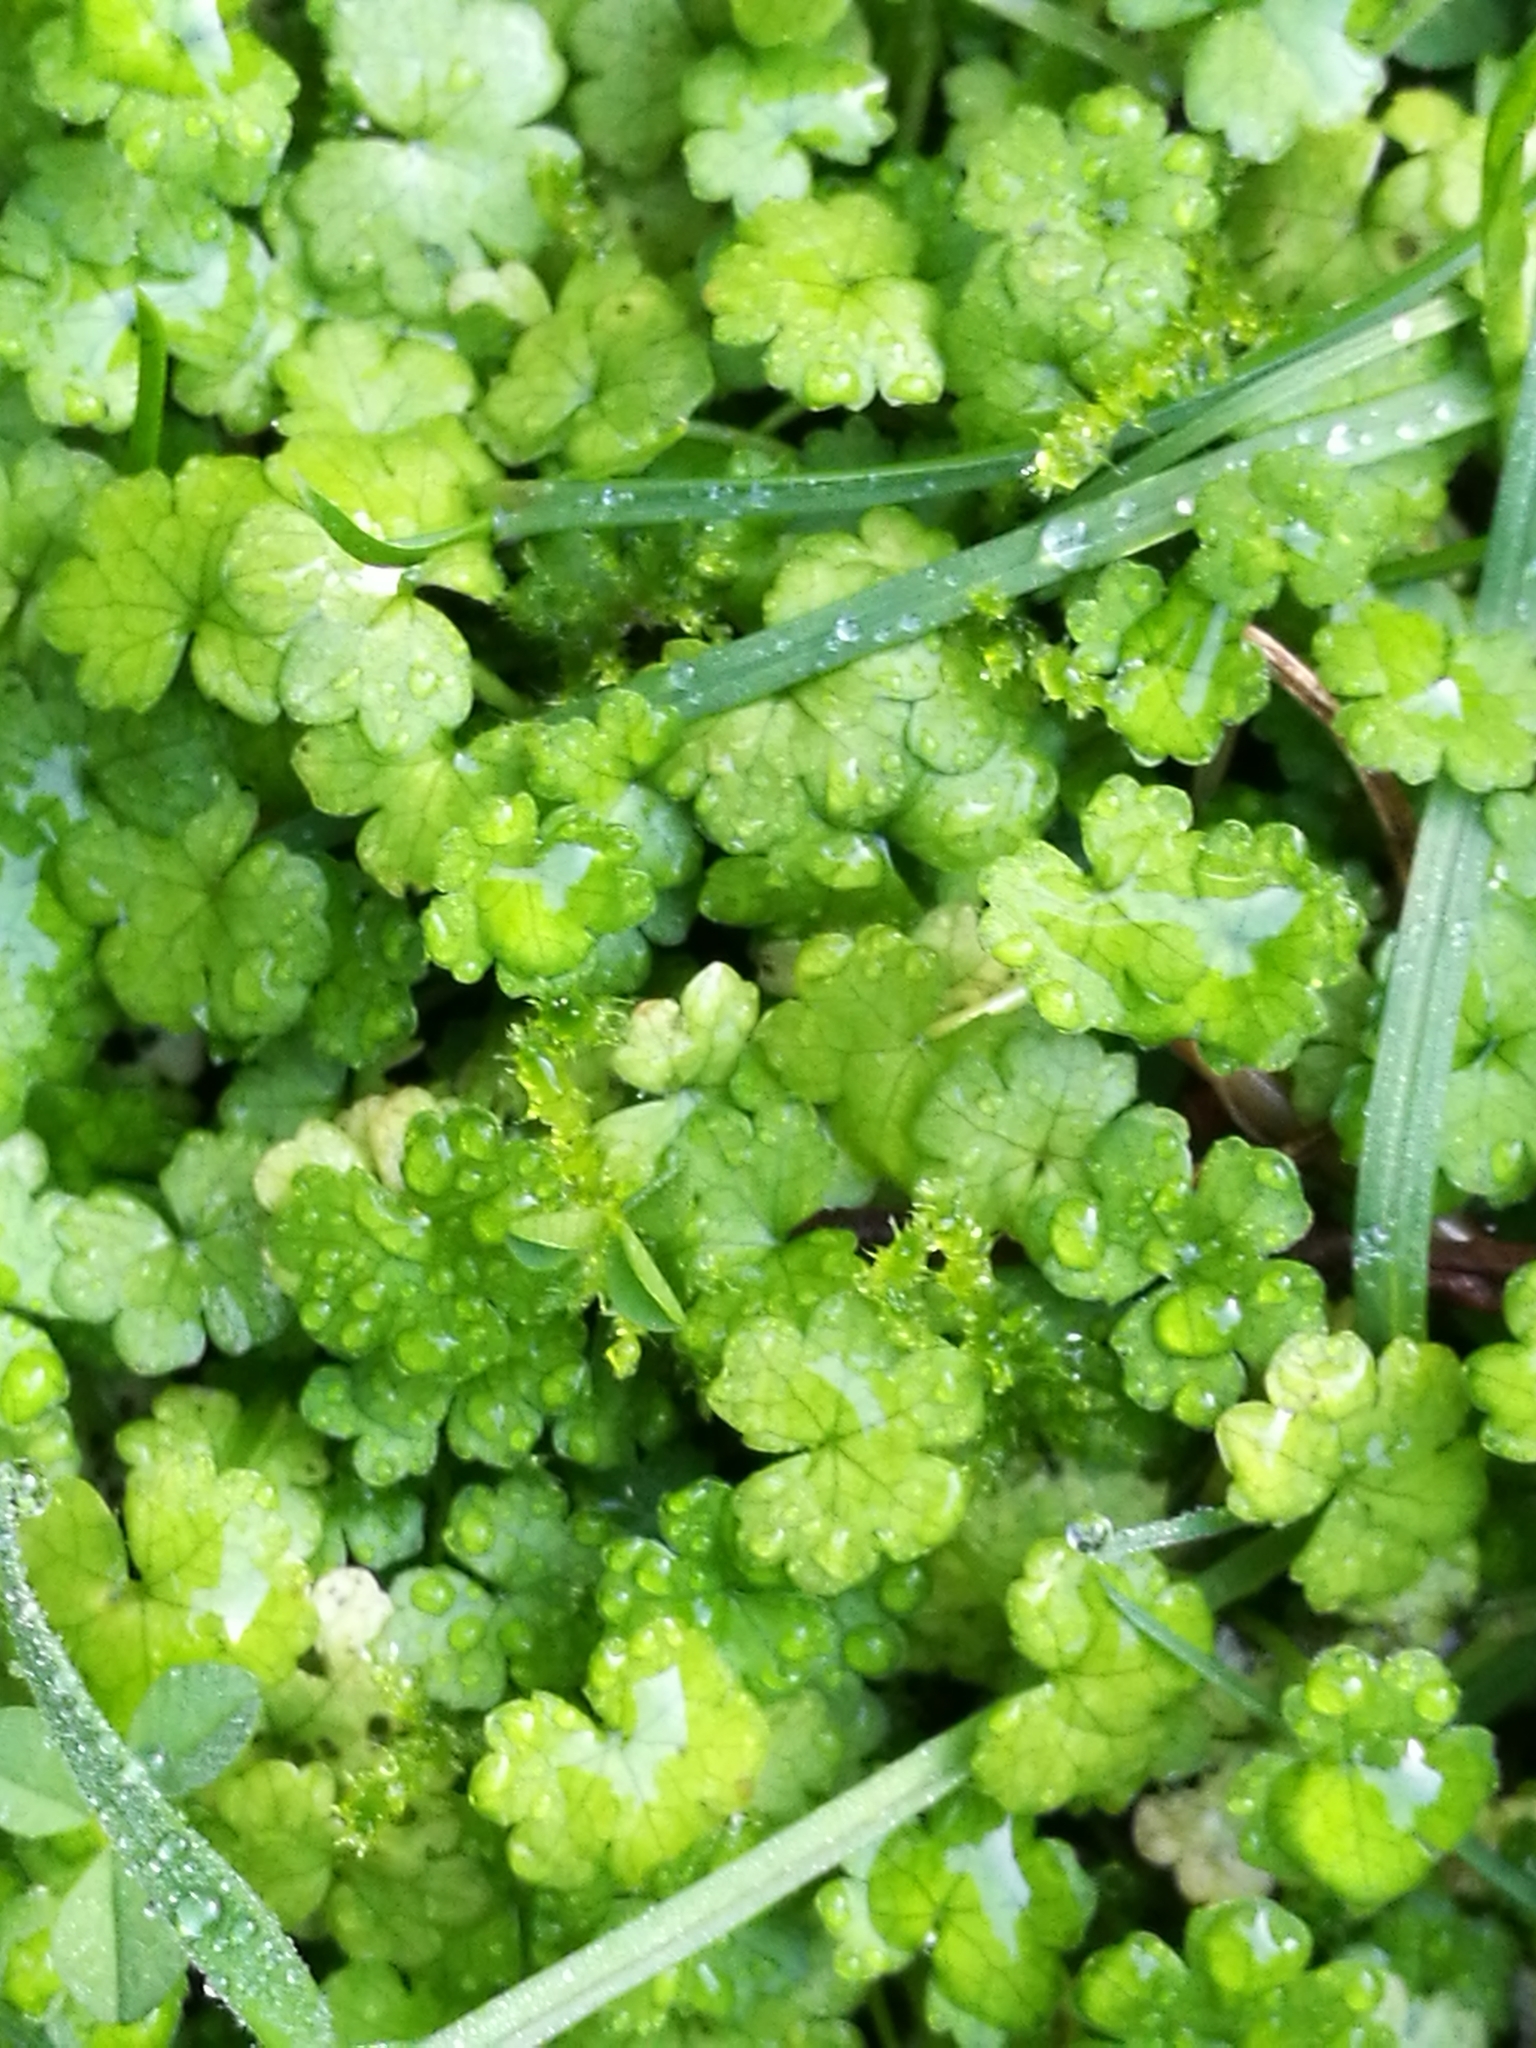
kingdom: Plantae
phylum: Tracheophyta
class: Magnoliopsida
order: Apiales
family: Araliaceae
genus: Hydrocotyle
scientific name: Hydrocotyle heteromeria
